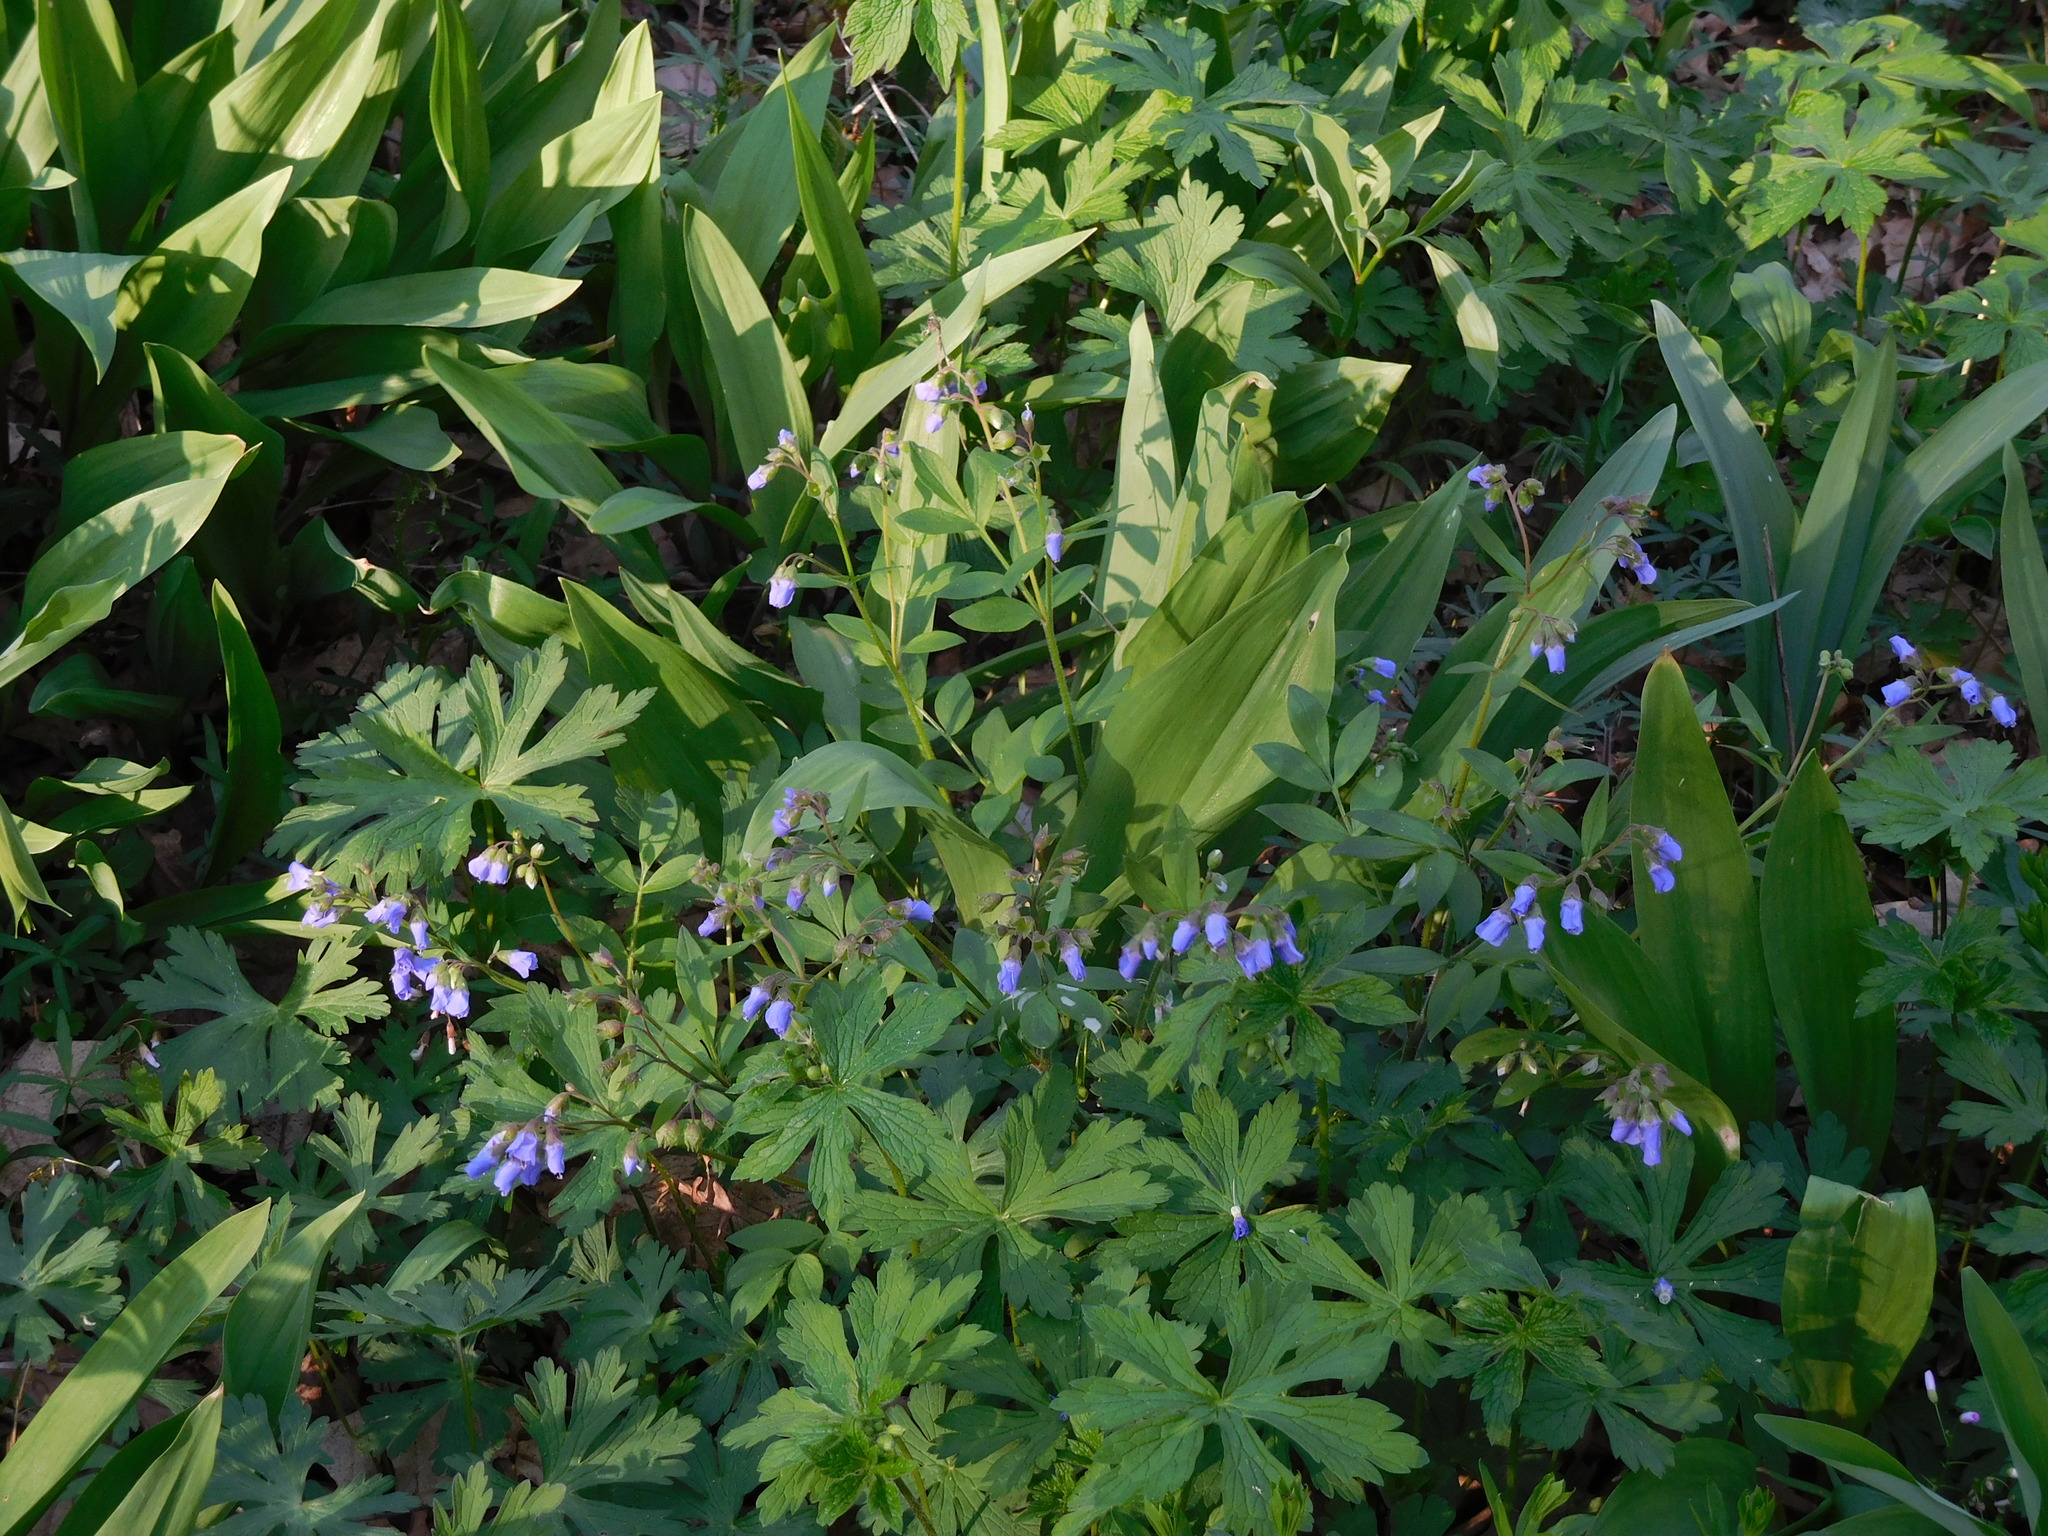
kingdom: Plantae
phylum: Tracheophyta
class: Magnoliopsida
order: Ericales
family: Polemoniaceae
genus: Polemonium
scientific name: Polemonium reptans
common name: Creeping jacob's-ladder
